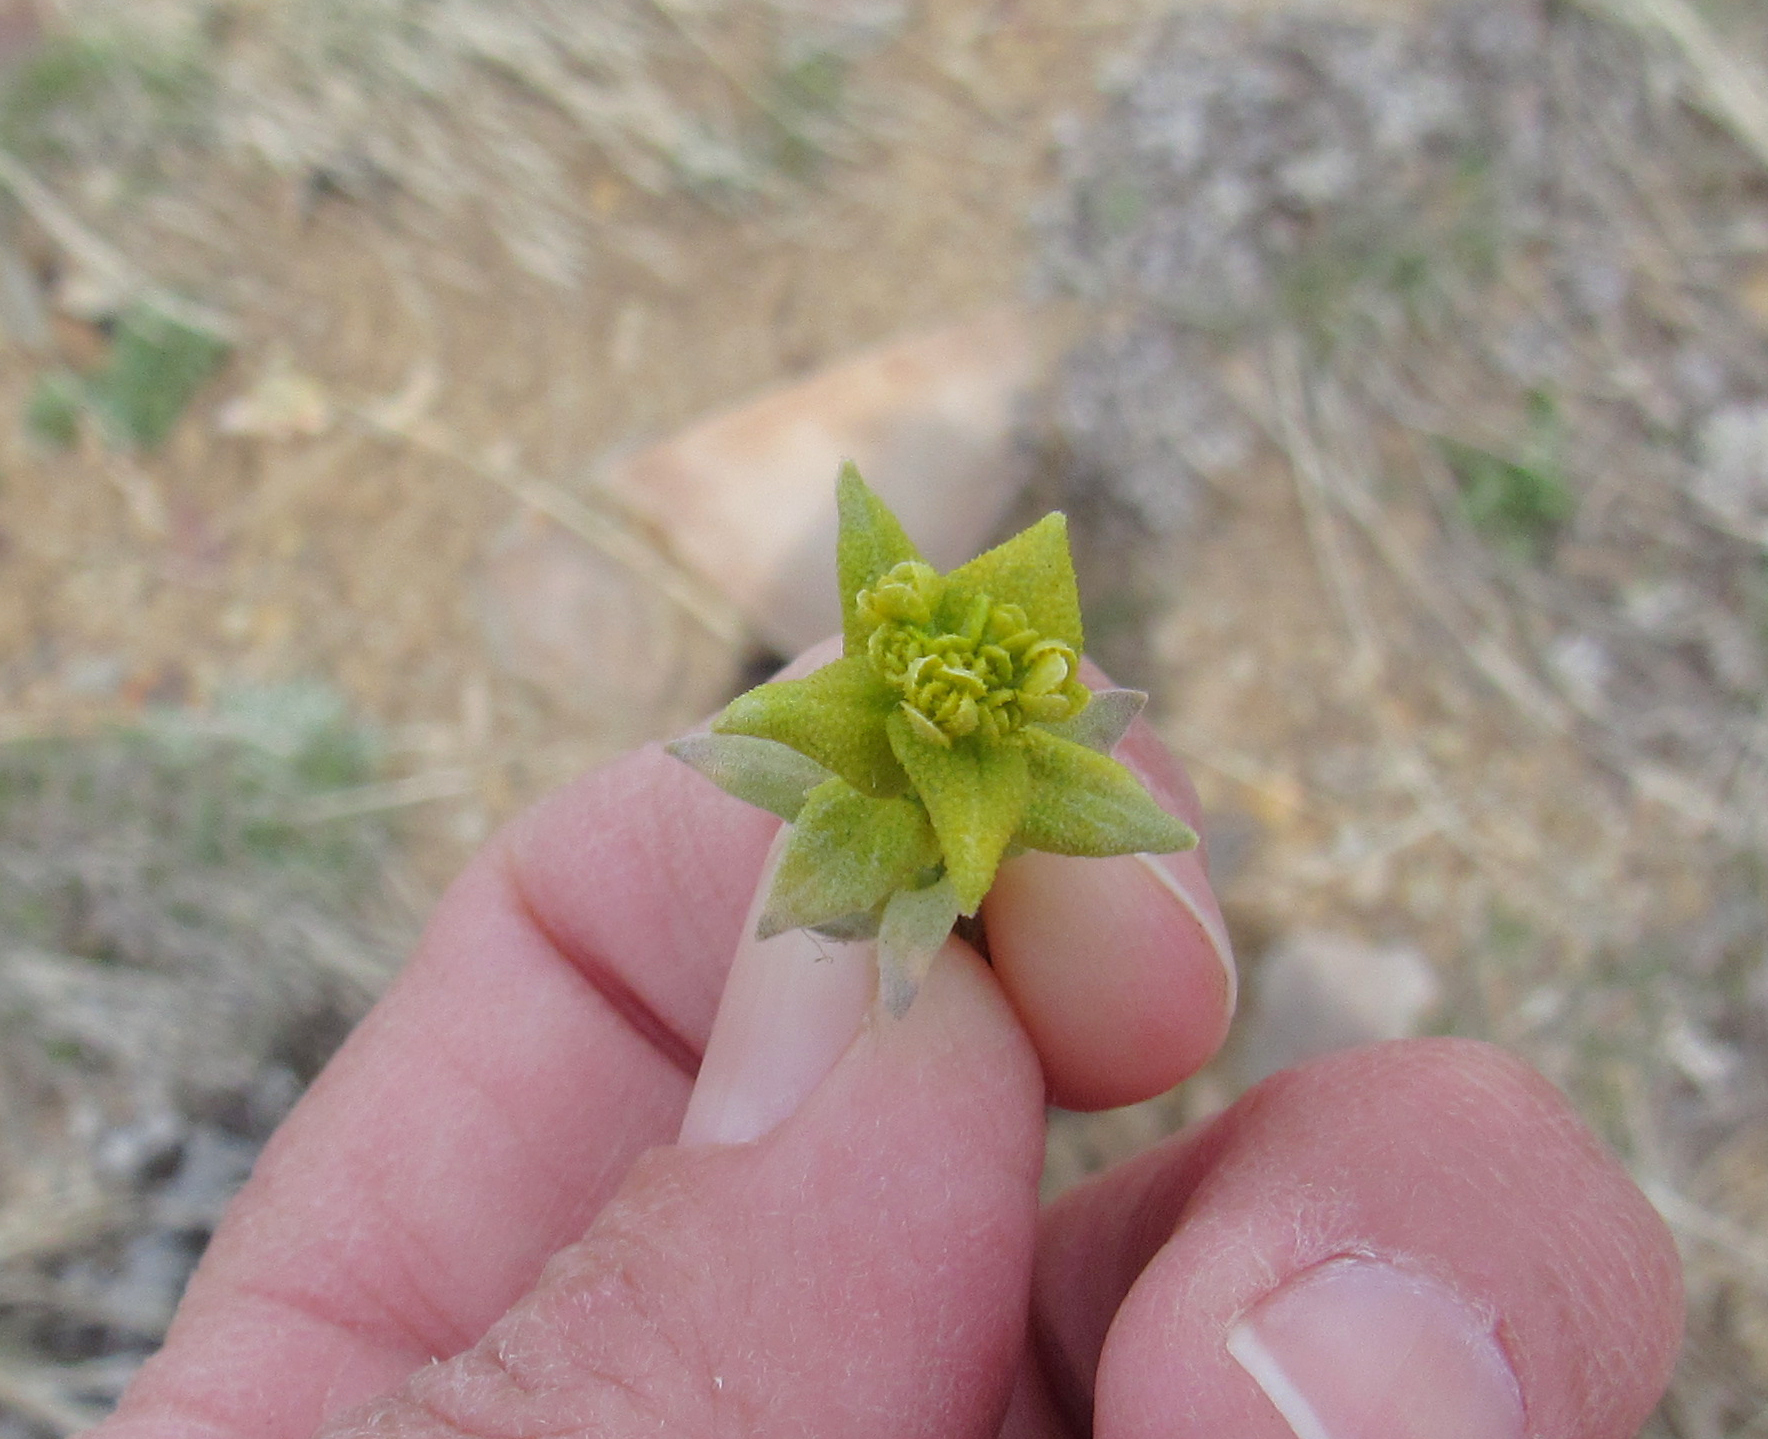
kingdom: Fungi
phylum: Basidiomycota
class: Pucciniomycetes
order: Pucciniales
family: Pucciniaceae
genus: Puccinia
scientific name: Puccinia monoica
